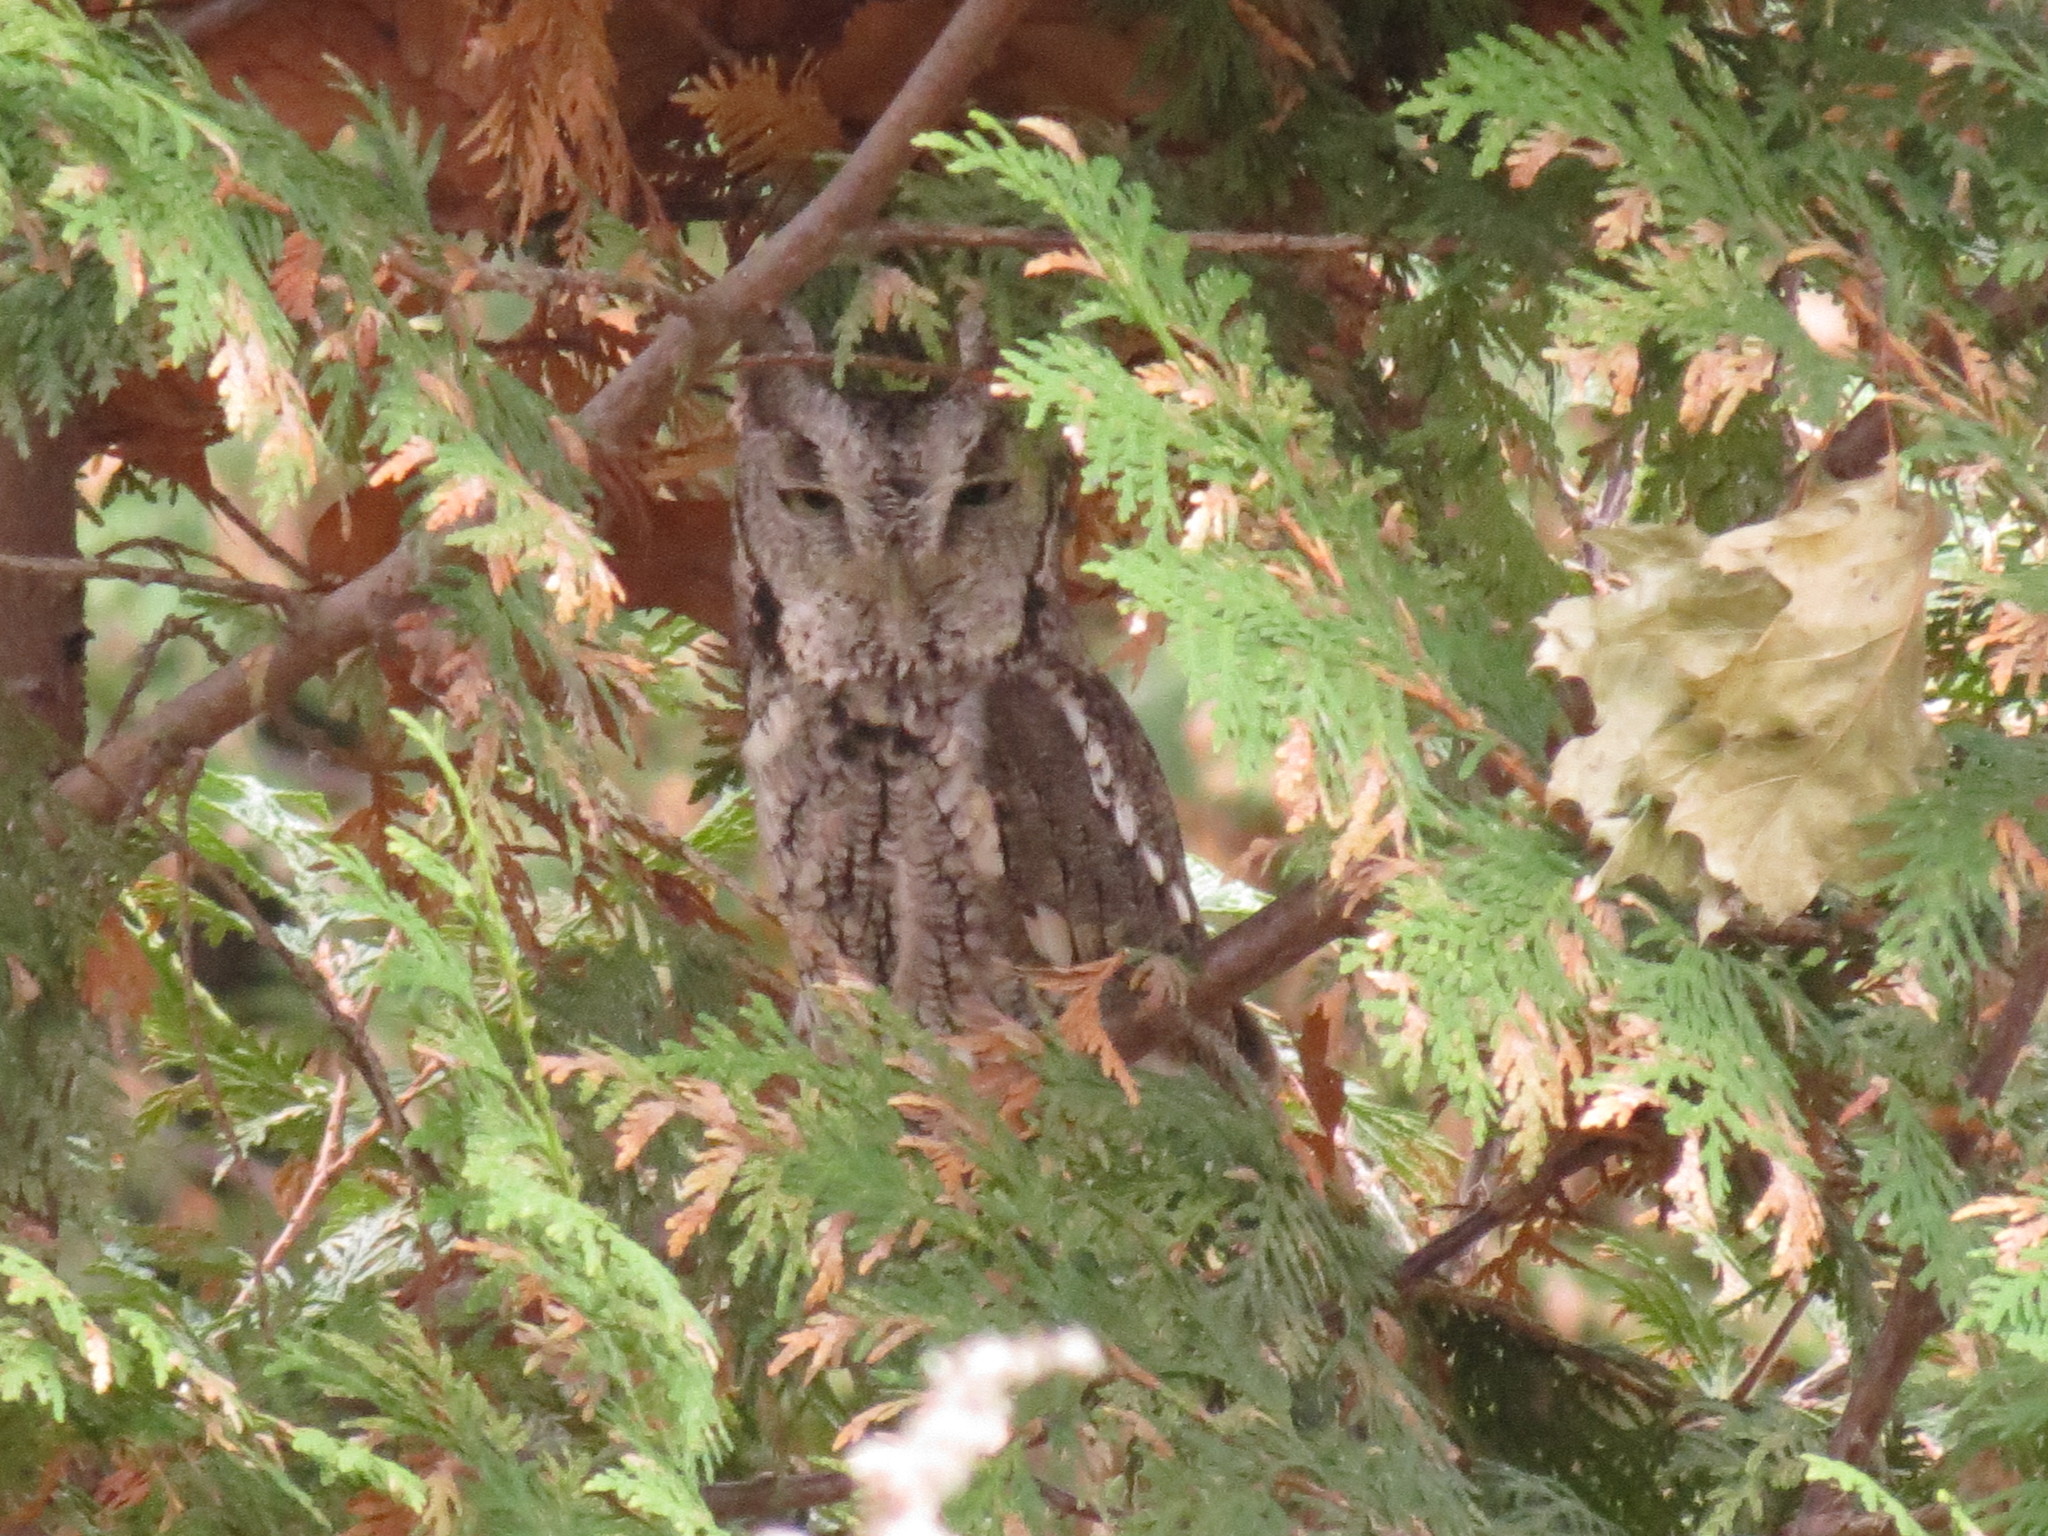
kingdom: Animalia
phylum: Chordata
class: Aves
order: Strigiformes
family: Strigidae
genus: Megascops
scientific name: Megascops asio
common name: Eastern screech-owl
